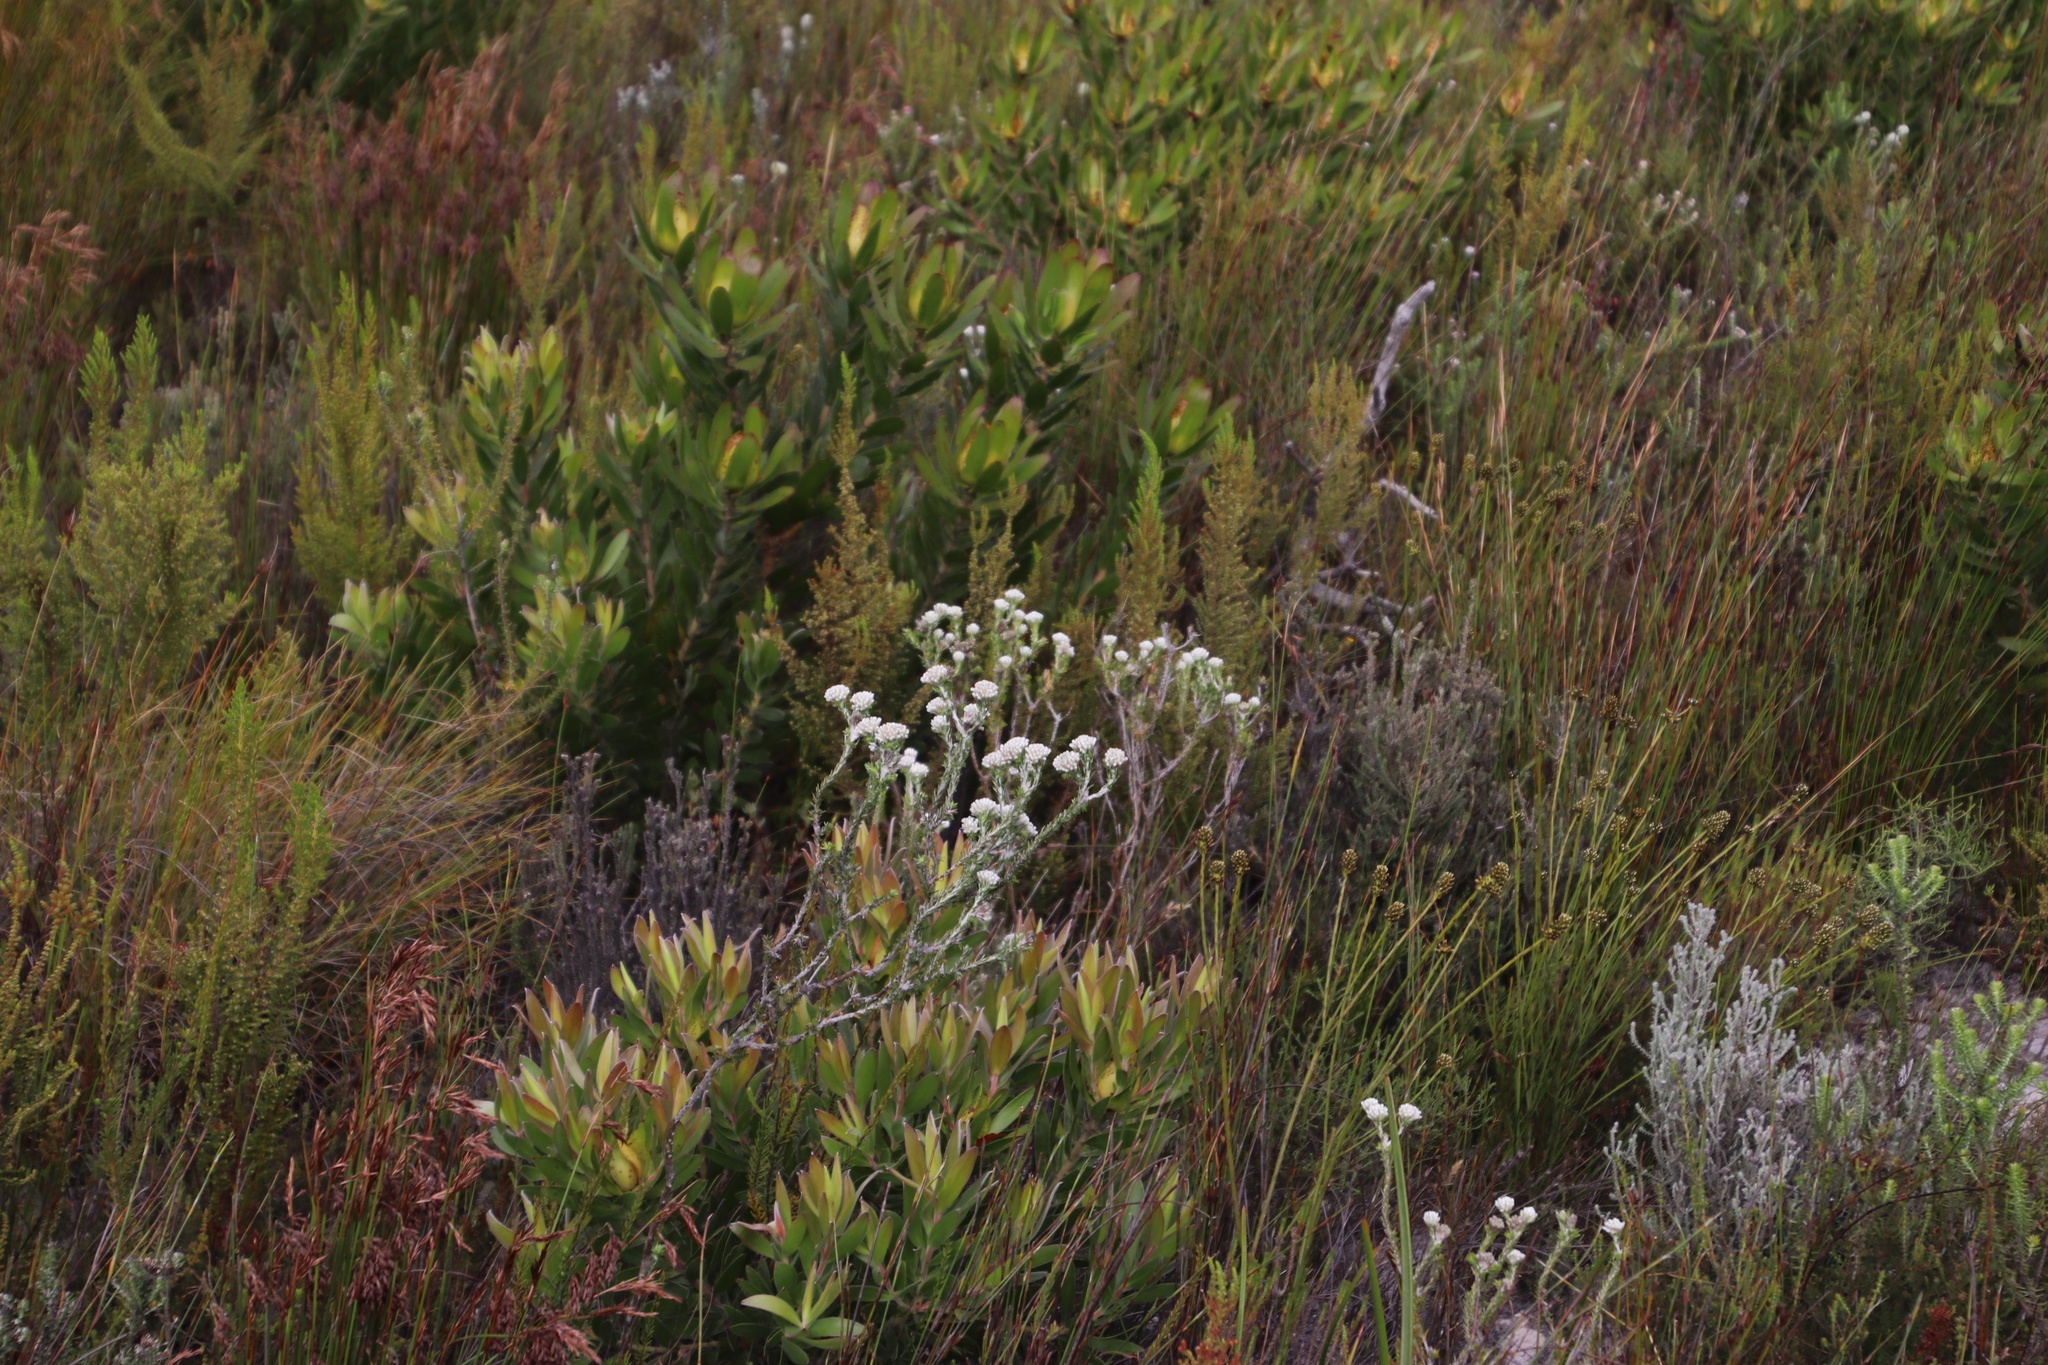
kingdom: Plantae
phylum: Tracheophyta
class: Magnoliopsida
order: Asterales
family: Asteraceae
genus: Metalasia
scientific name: Metalasia compacta
